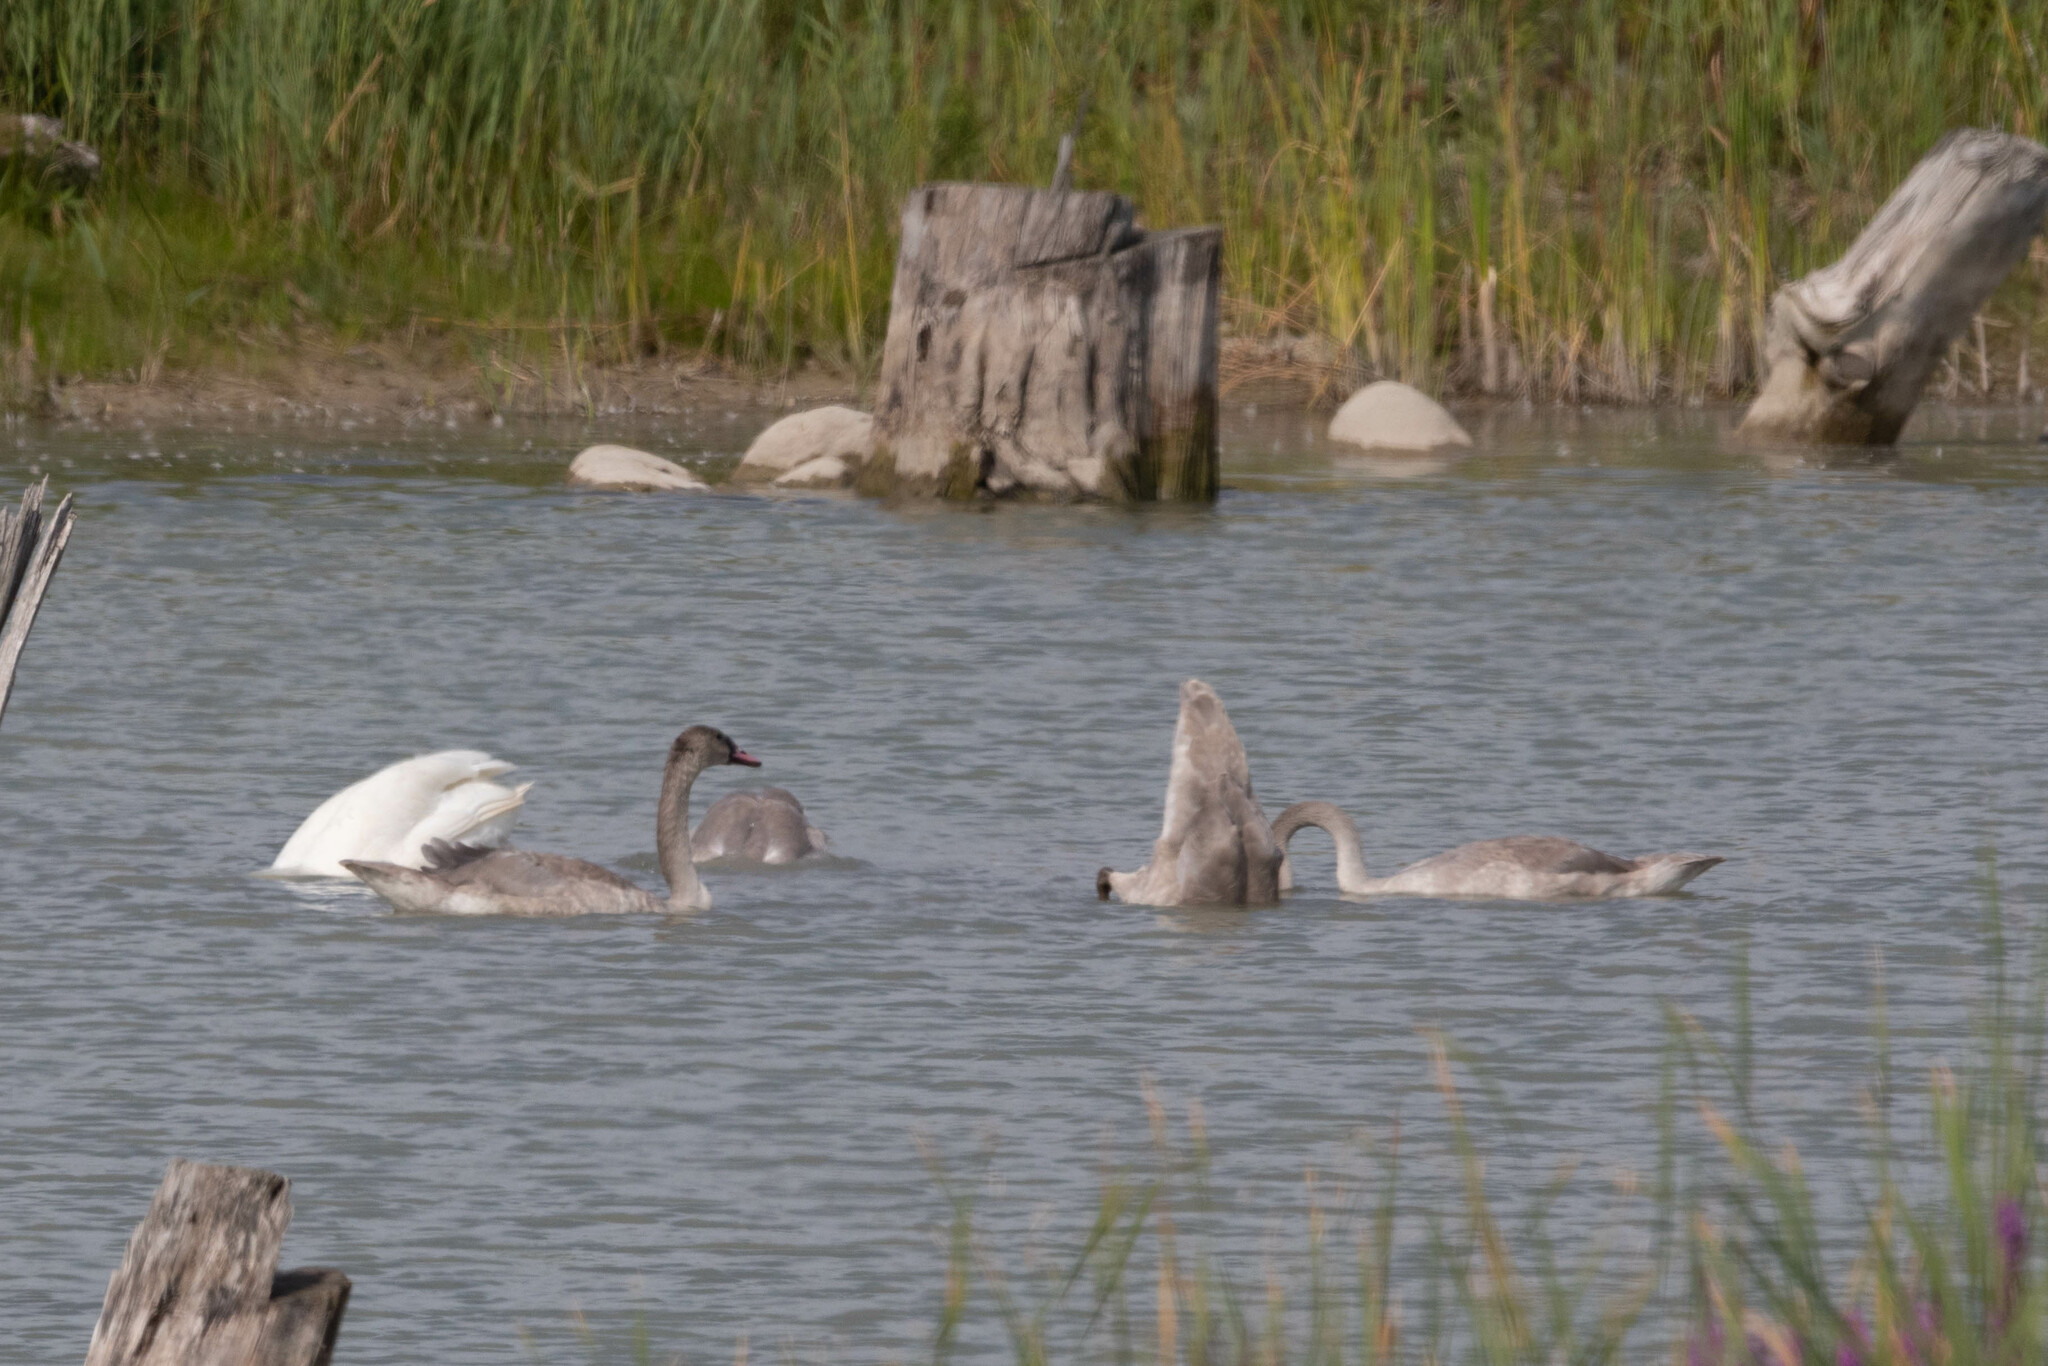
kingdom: Animalia
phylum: Chordata
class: Aves
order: Anseriformes
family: Anatidae
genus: Cygnus
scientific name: Cygnus buccinator
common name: Trumpeter swan
